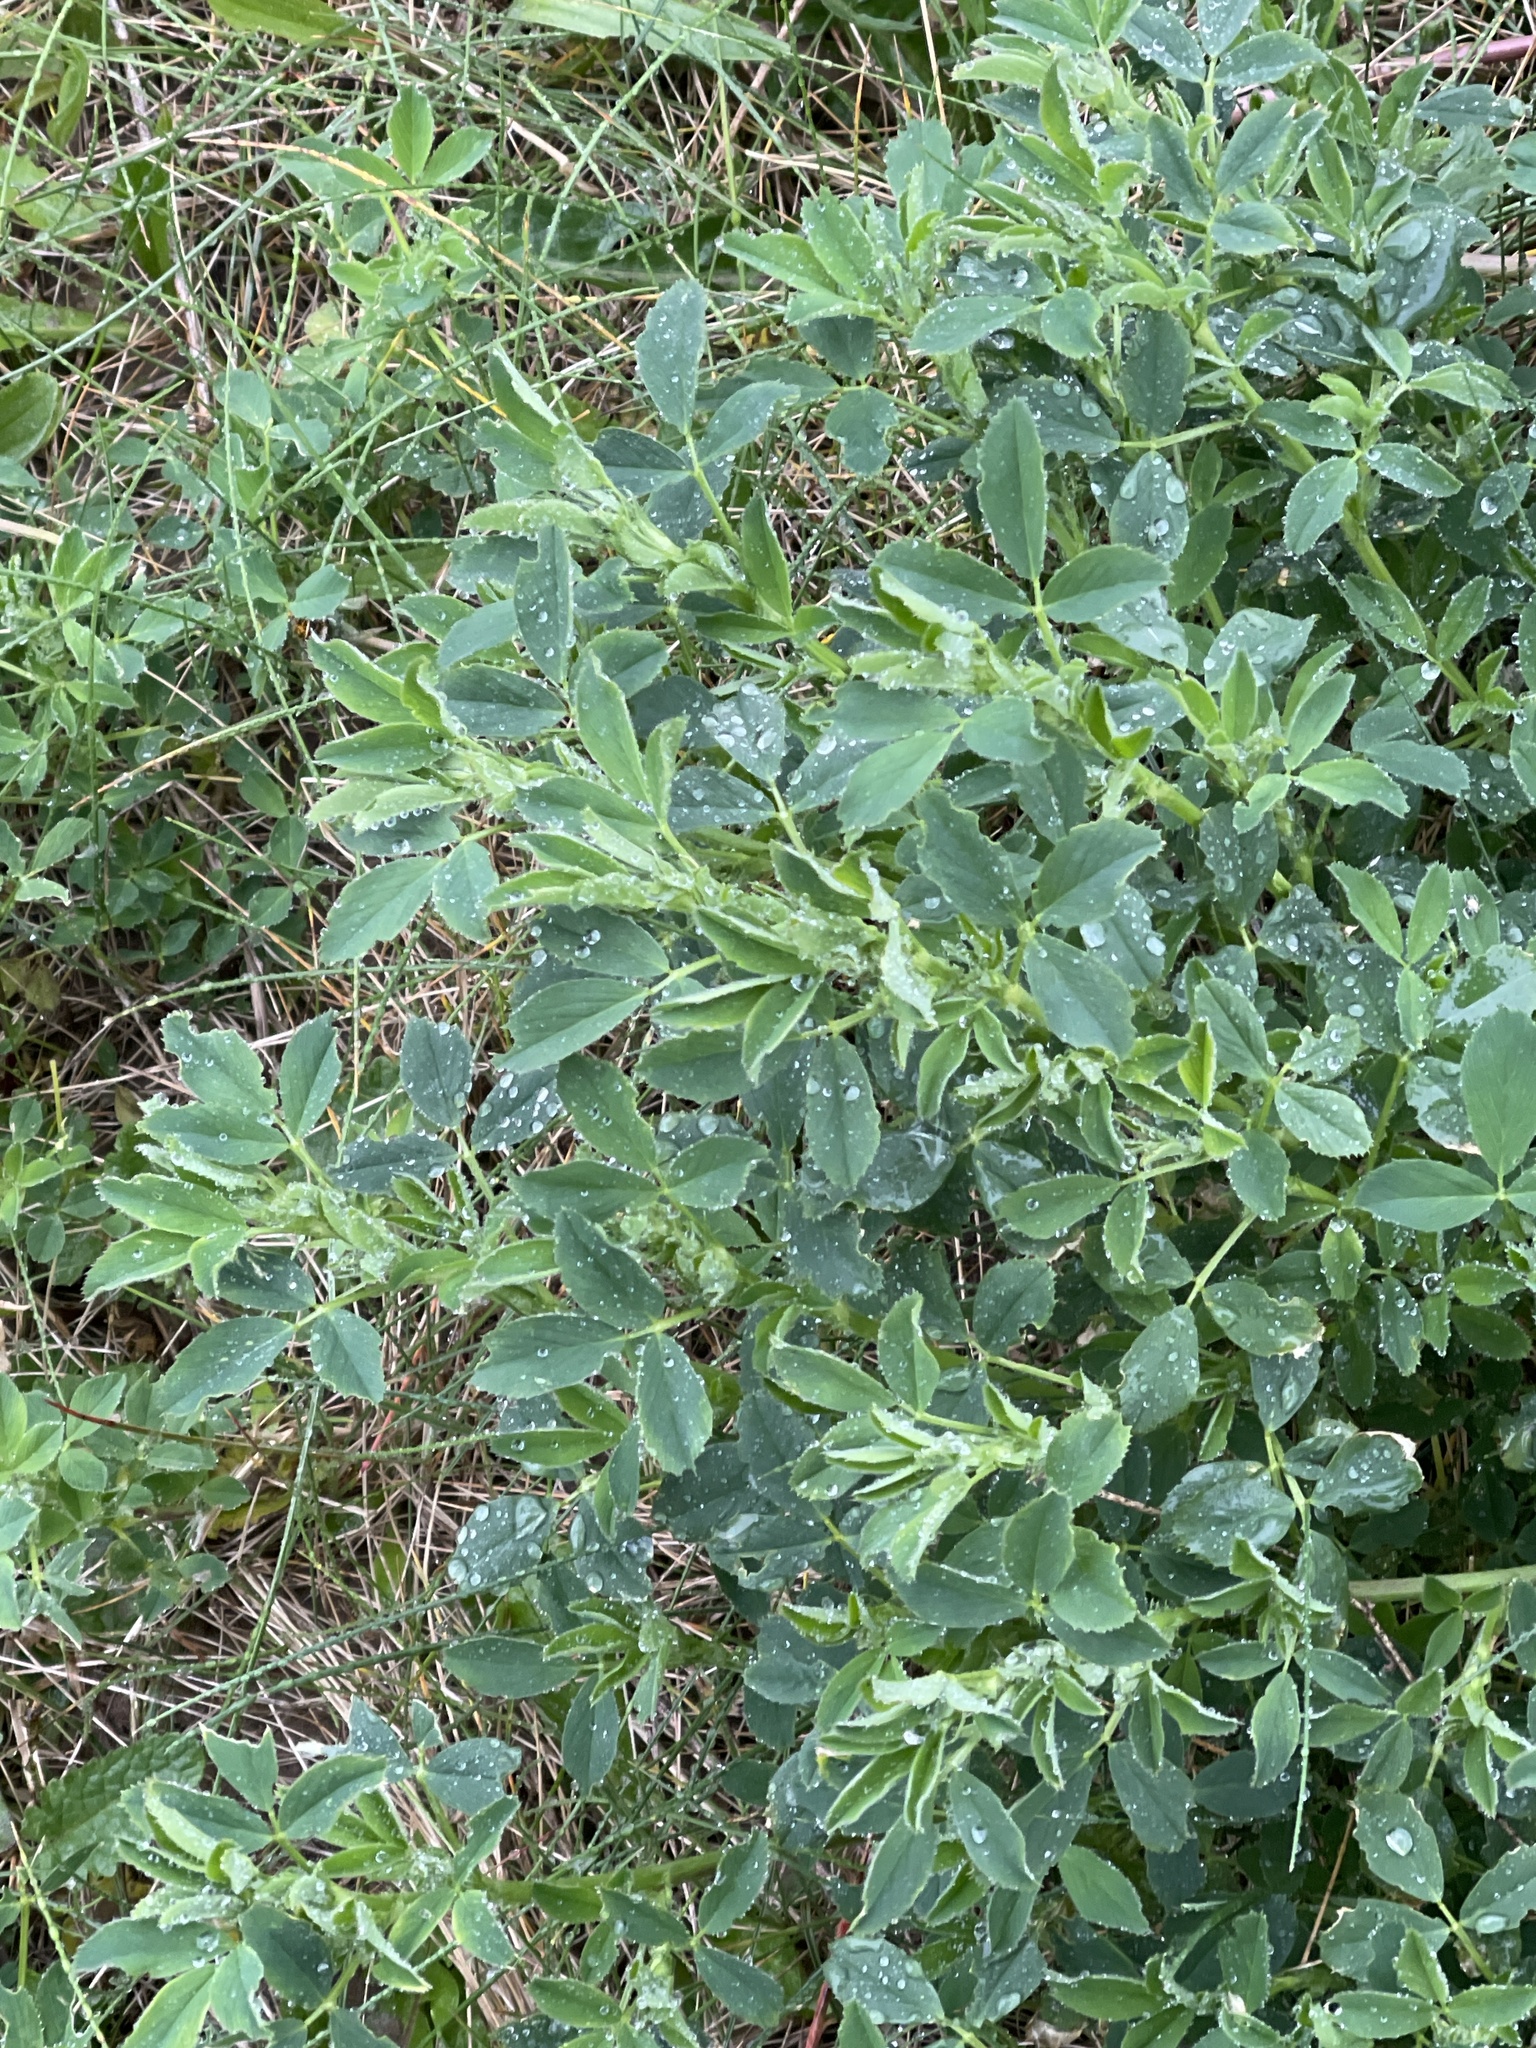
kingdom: Plantae
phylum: Tracheophyta
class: Magnoliopsida
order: Fabales
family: Fabaceae
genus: Medicago
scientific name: Medicago sativa
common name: Alfalfa
